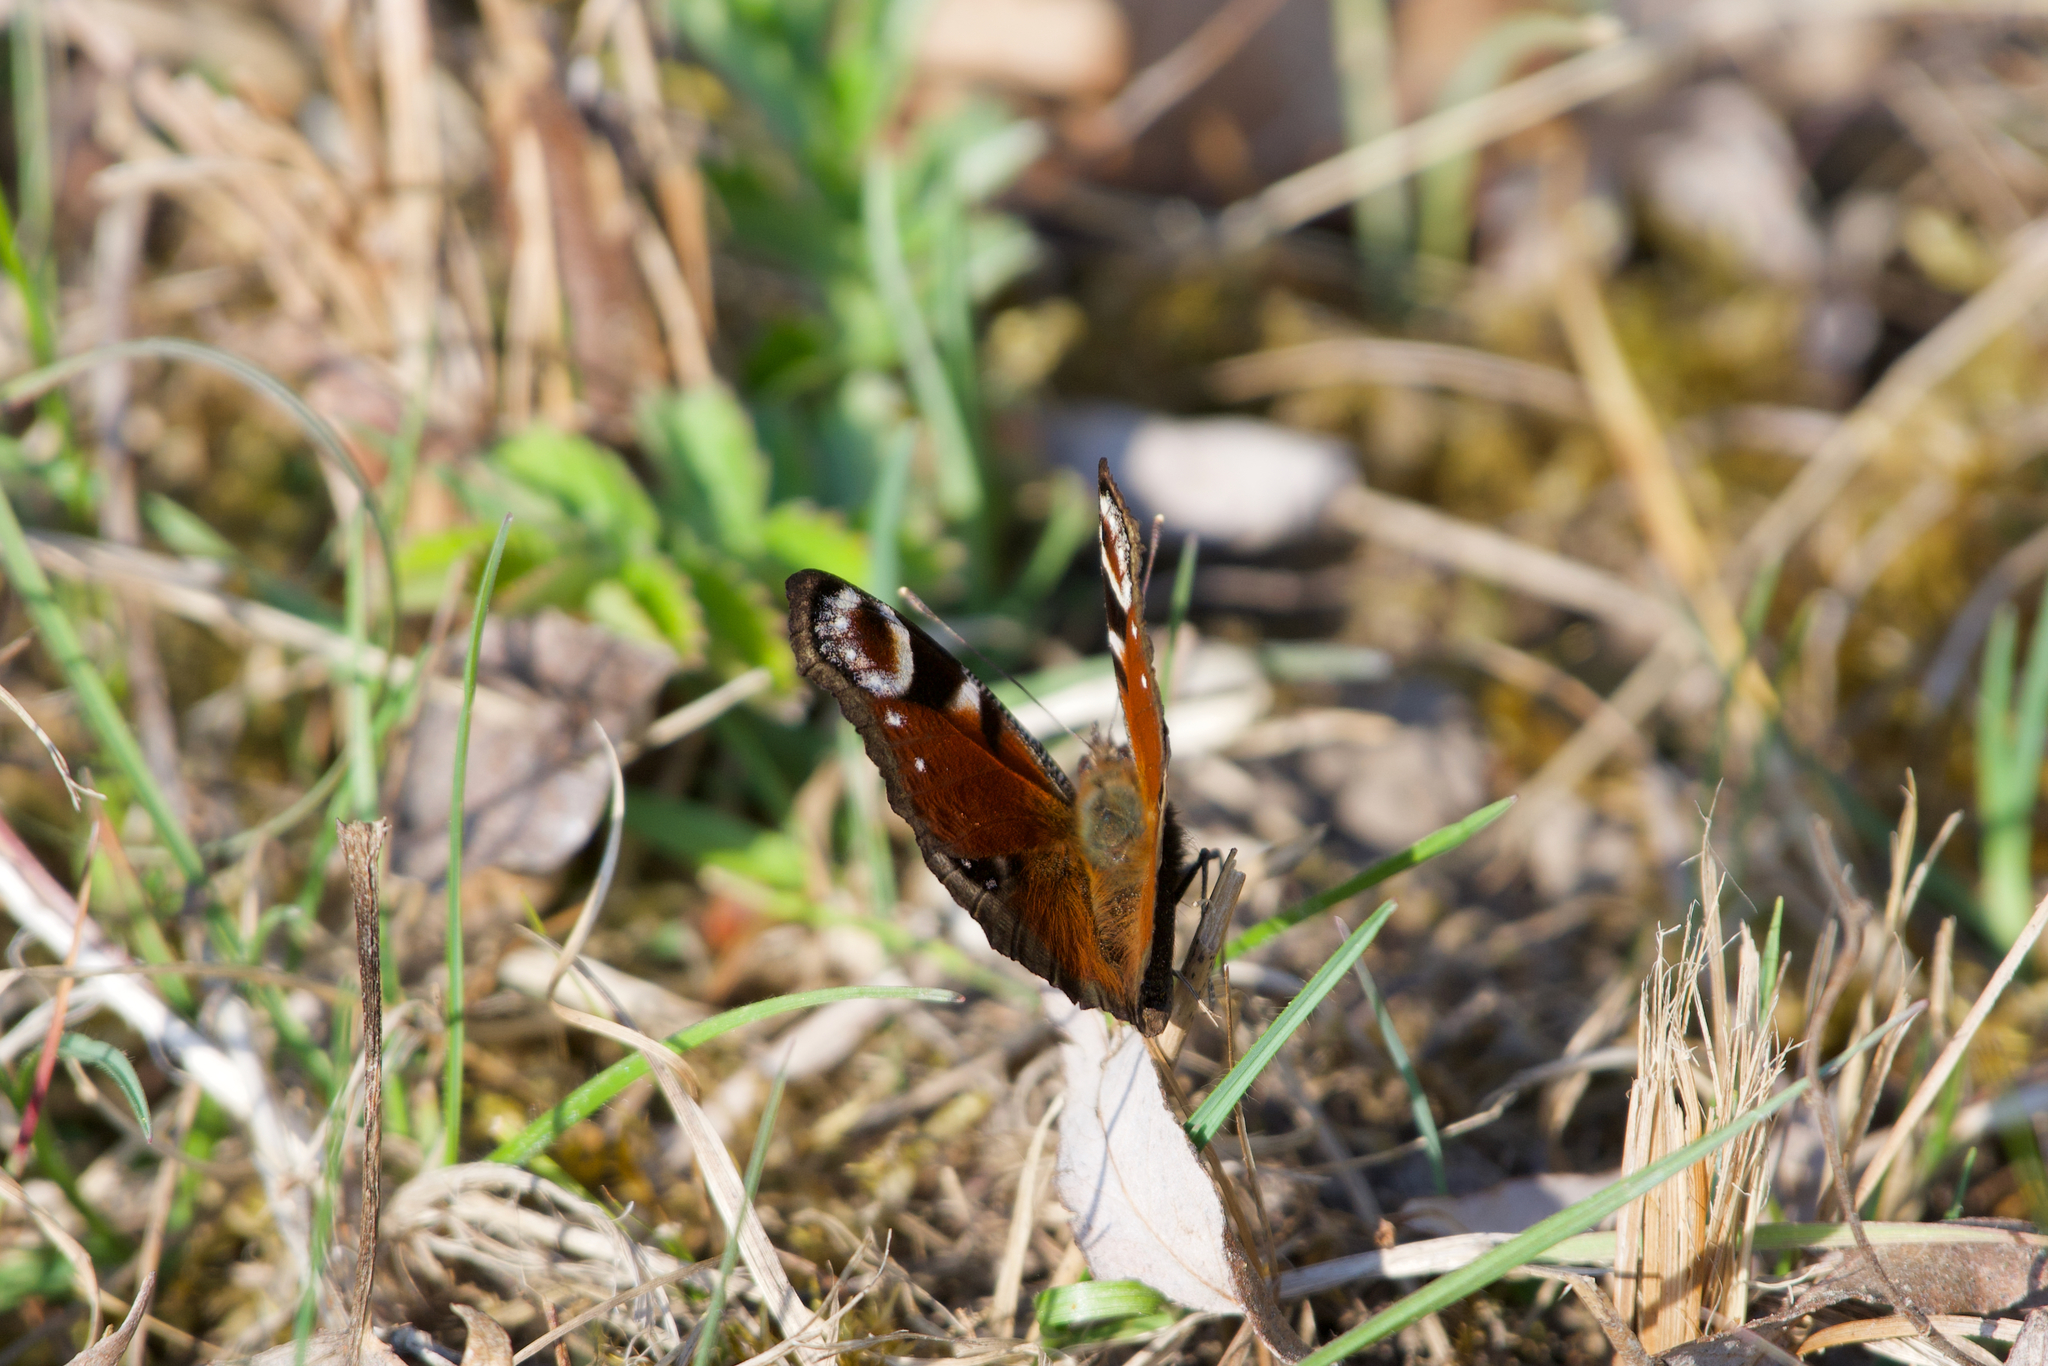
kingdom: Animalia
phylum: Arthropoda
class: Insecta
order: Lepidoptera
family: Nymphalidae
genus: Aglais
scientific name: Aglais io
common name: Peacock
